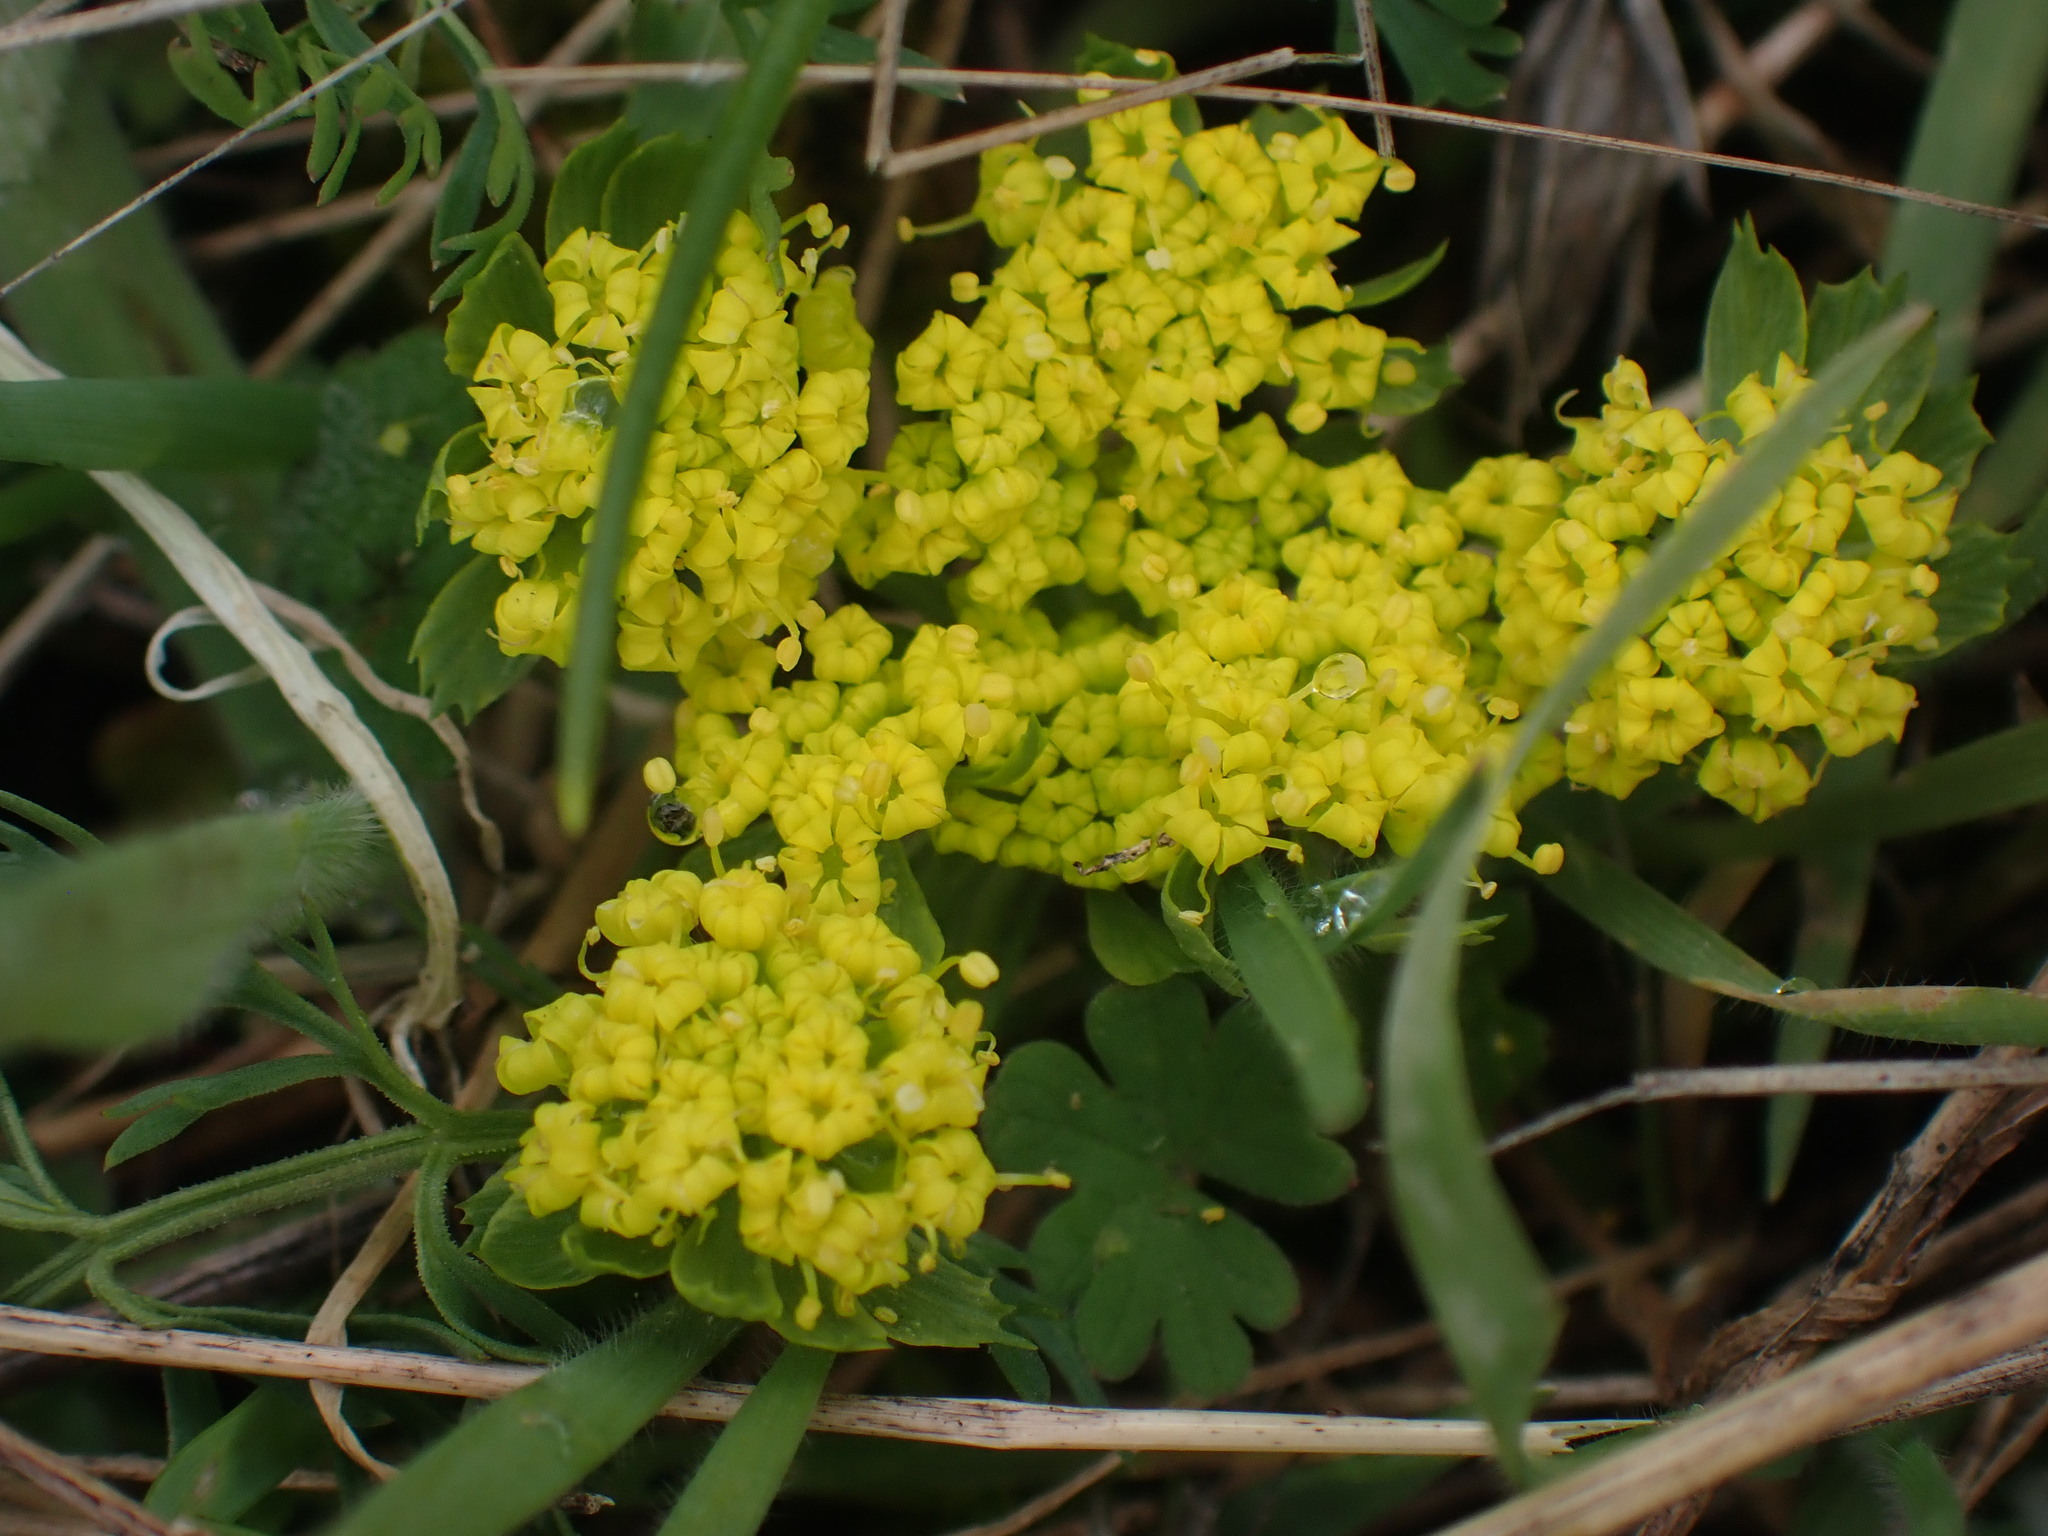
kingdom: Plantae
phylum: Tracheophyta
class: Magnoliopsida
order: Apiales
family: Apiaceae
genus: Lomatium
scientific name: Lomatium utriculatum
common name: Fine-leaf desert-parsley
